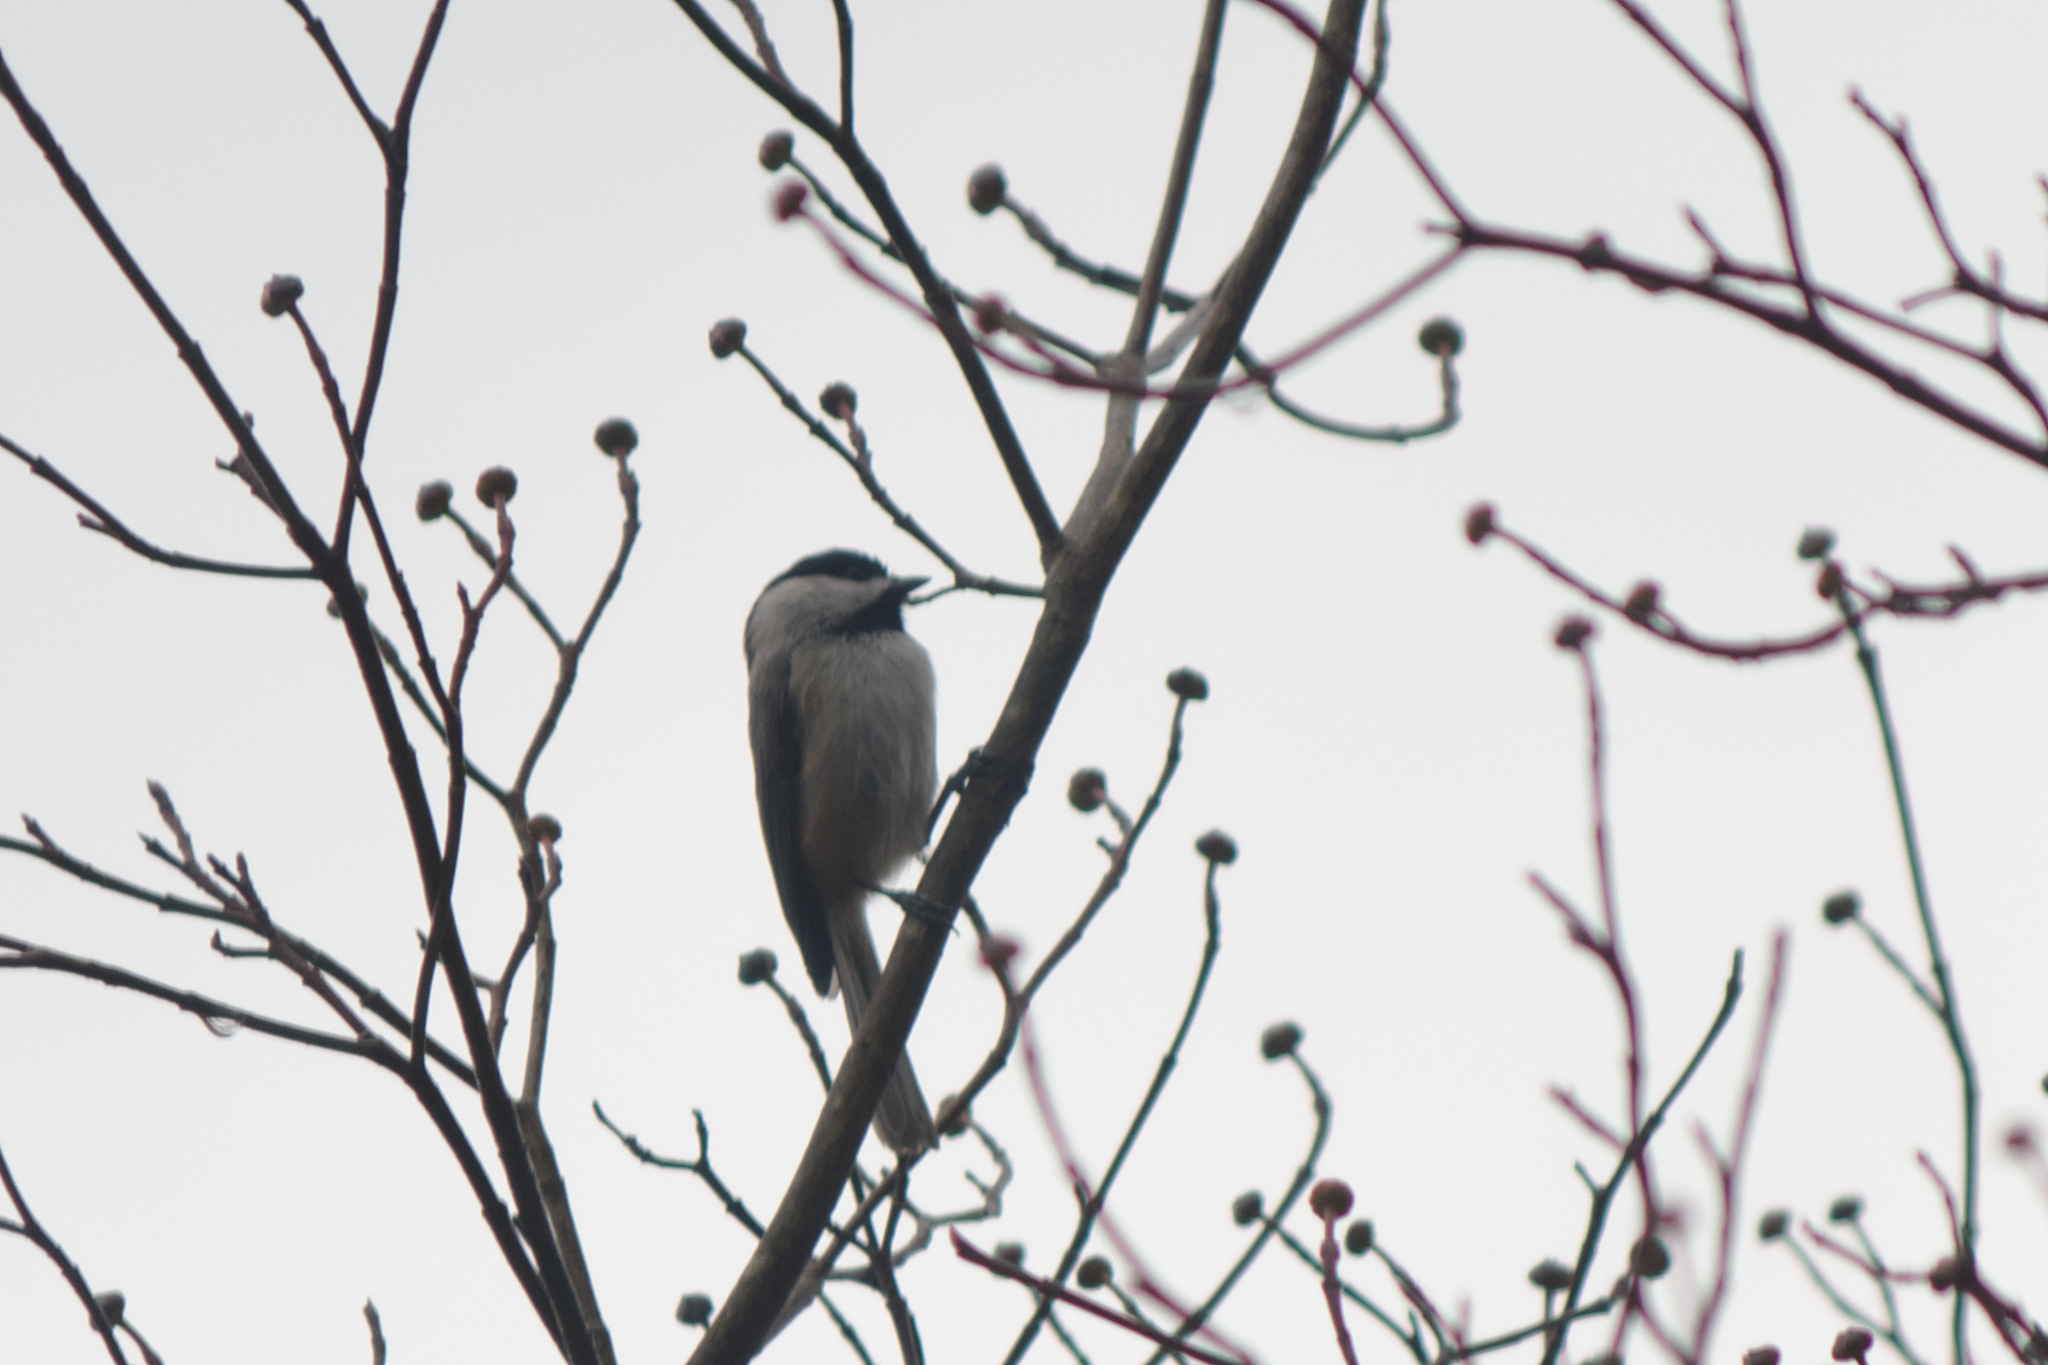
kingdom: Animalia
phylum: Chordata
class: Aves
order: Passeriformes
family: Paridae
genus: Poecile
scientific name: Poecile carolinensis
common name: Carolina chickadee
